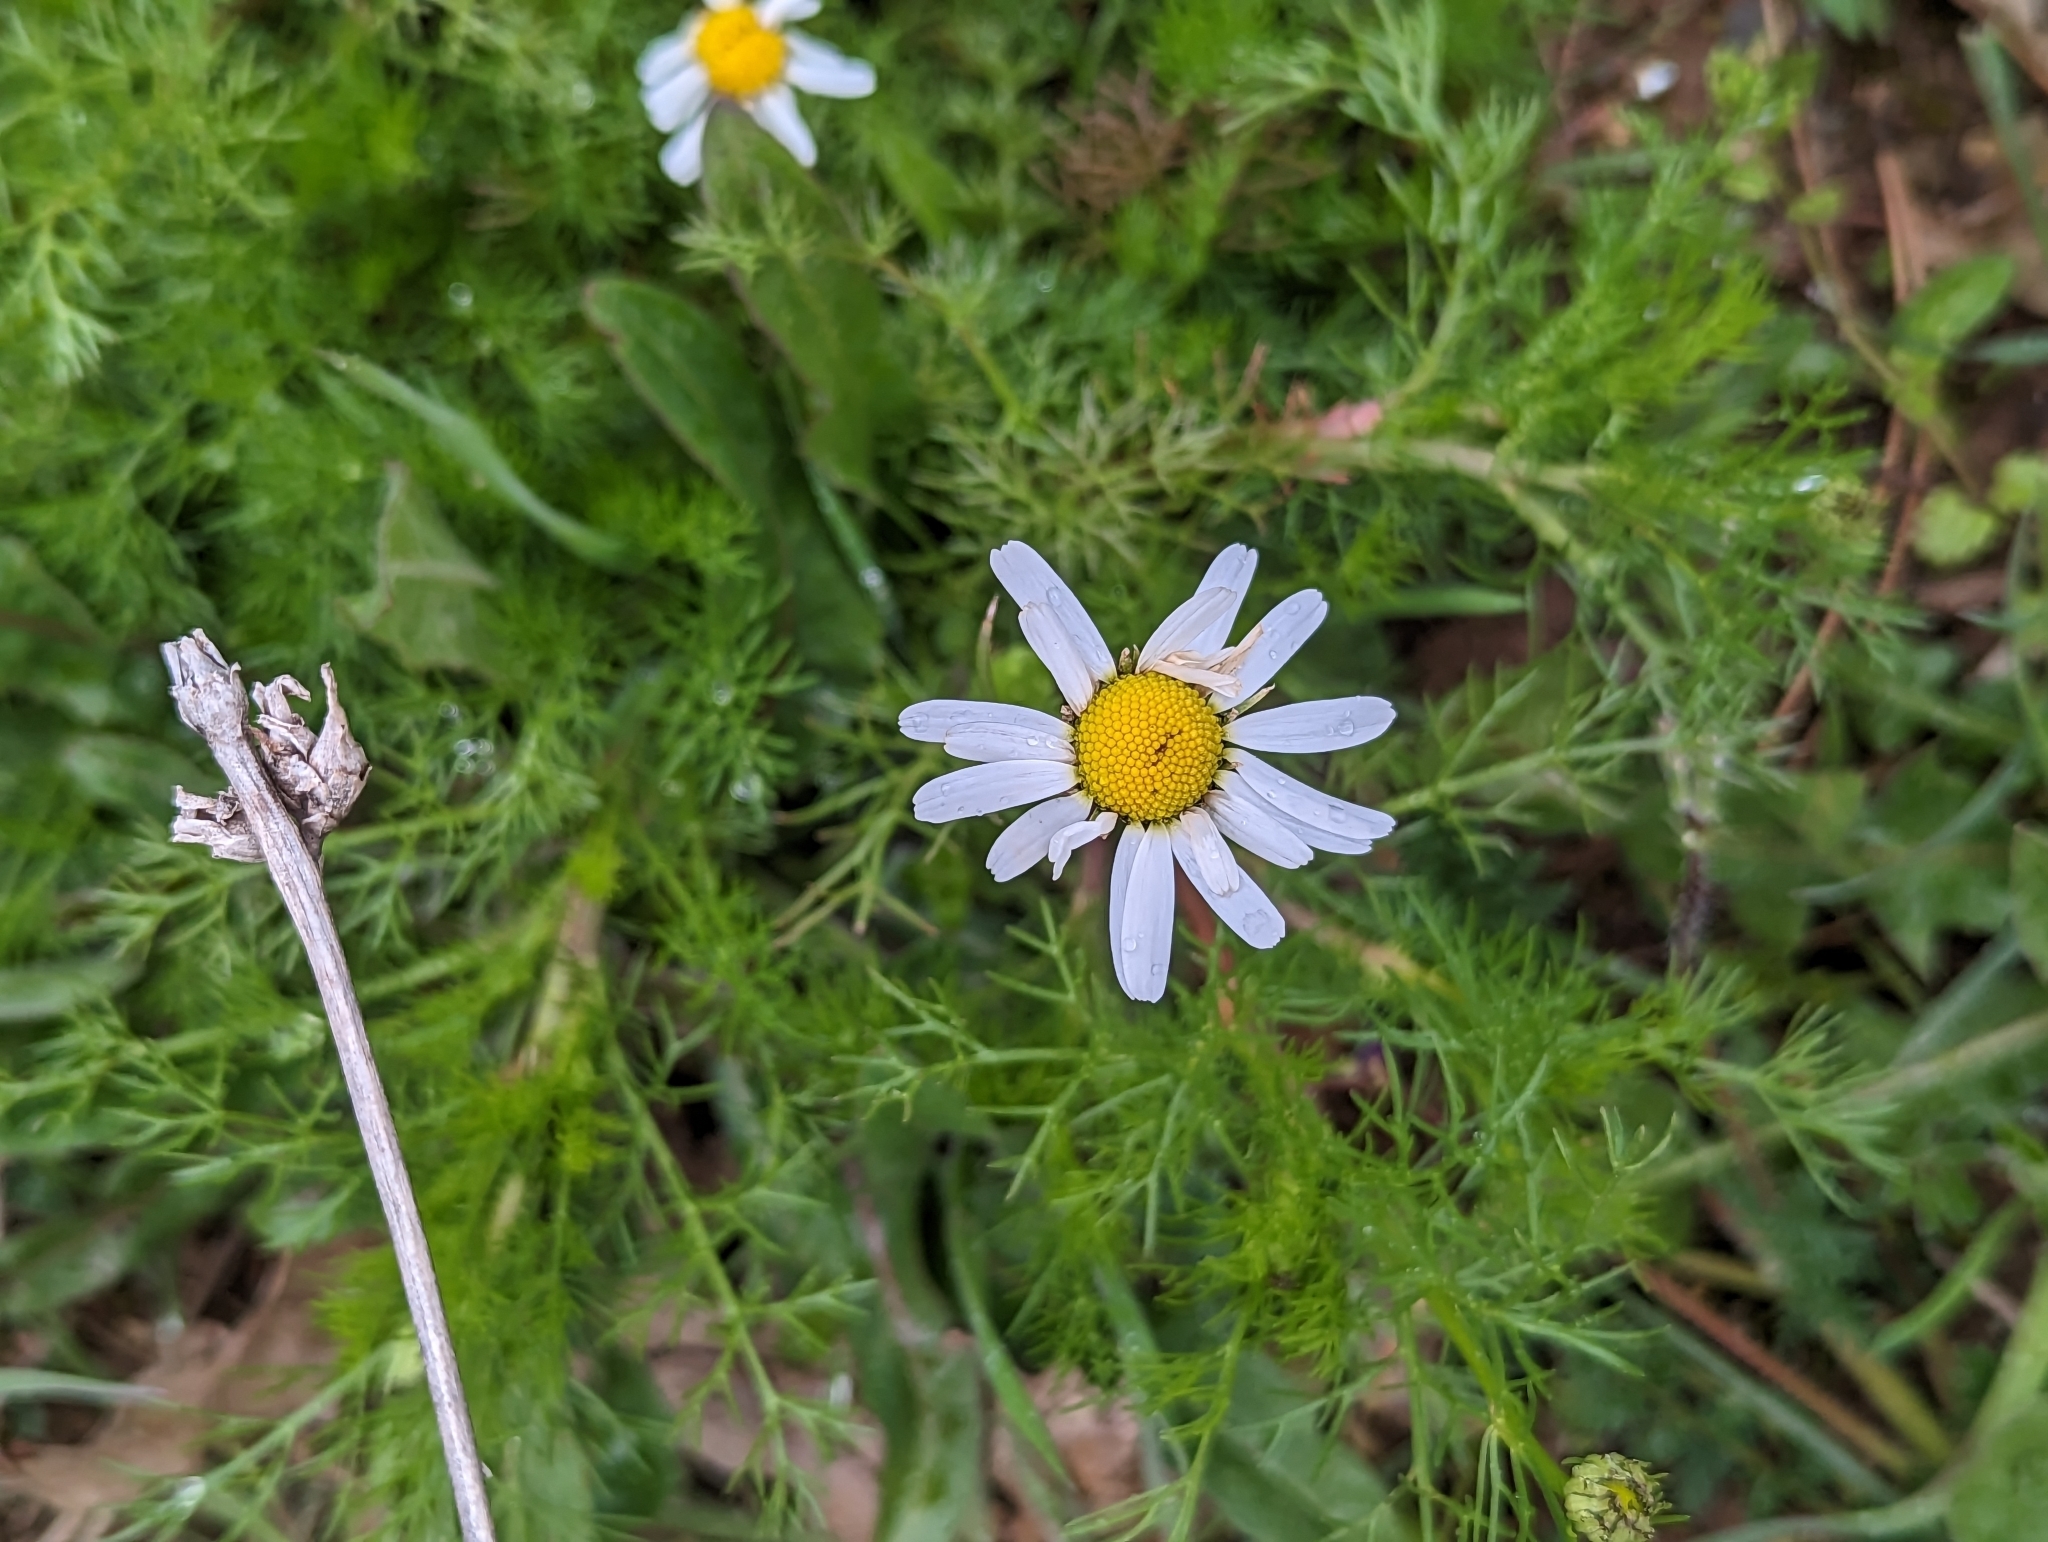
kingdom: Plantae
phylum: Tracheophyta
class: Magnoliopsida
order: Asterales
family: Asteraceae
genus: Tripleurospermum
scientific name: Tripleurospermum inodorum
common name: Scentless mayweed
